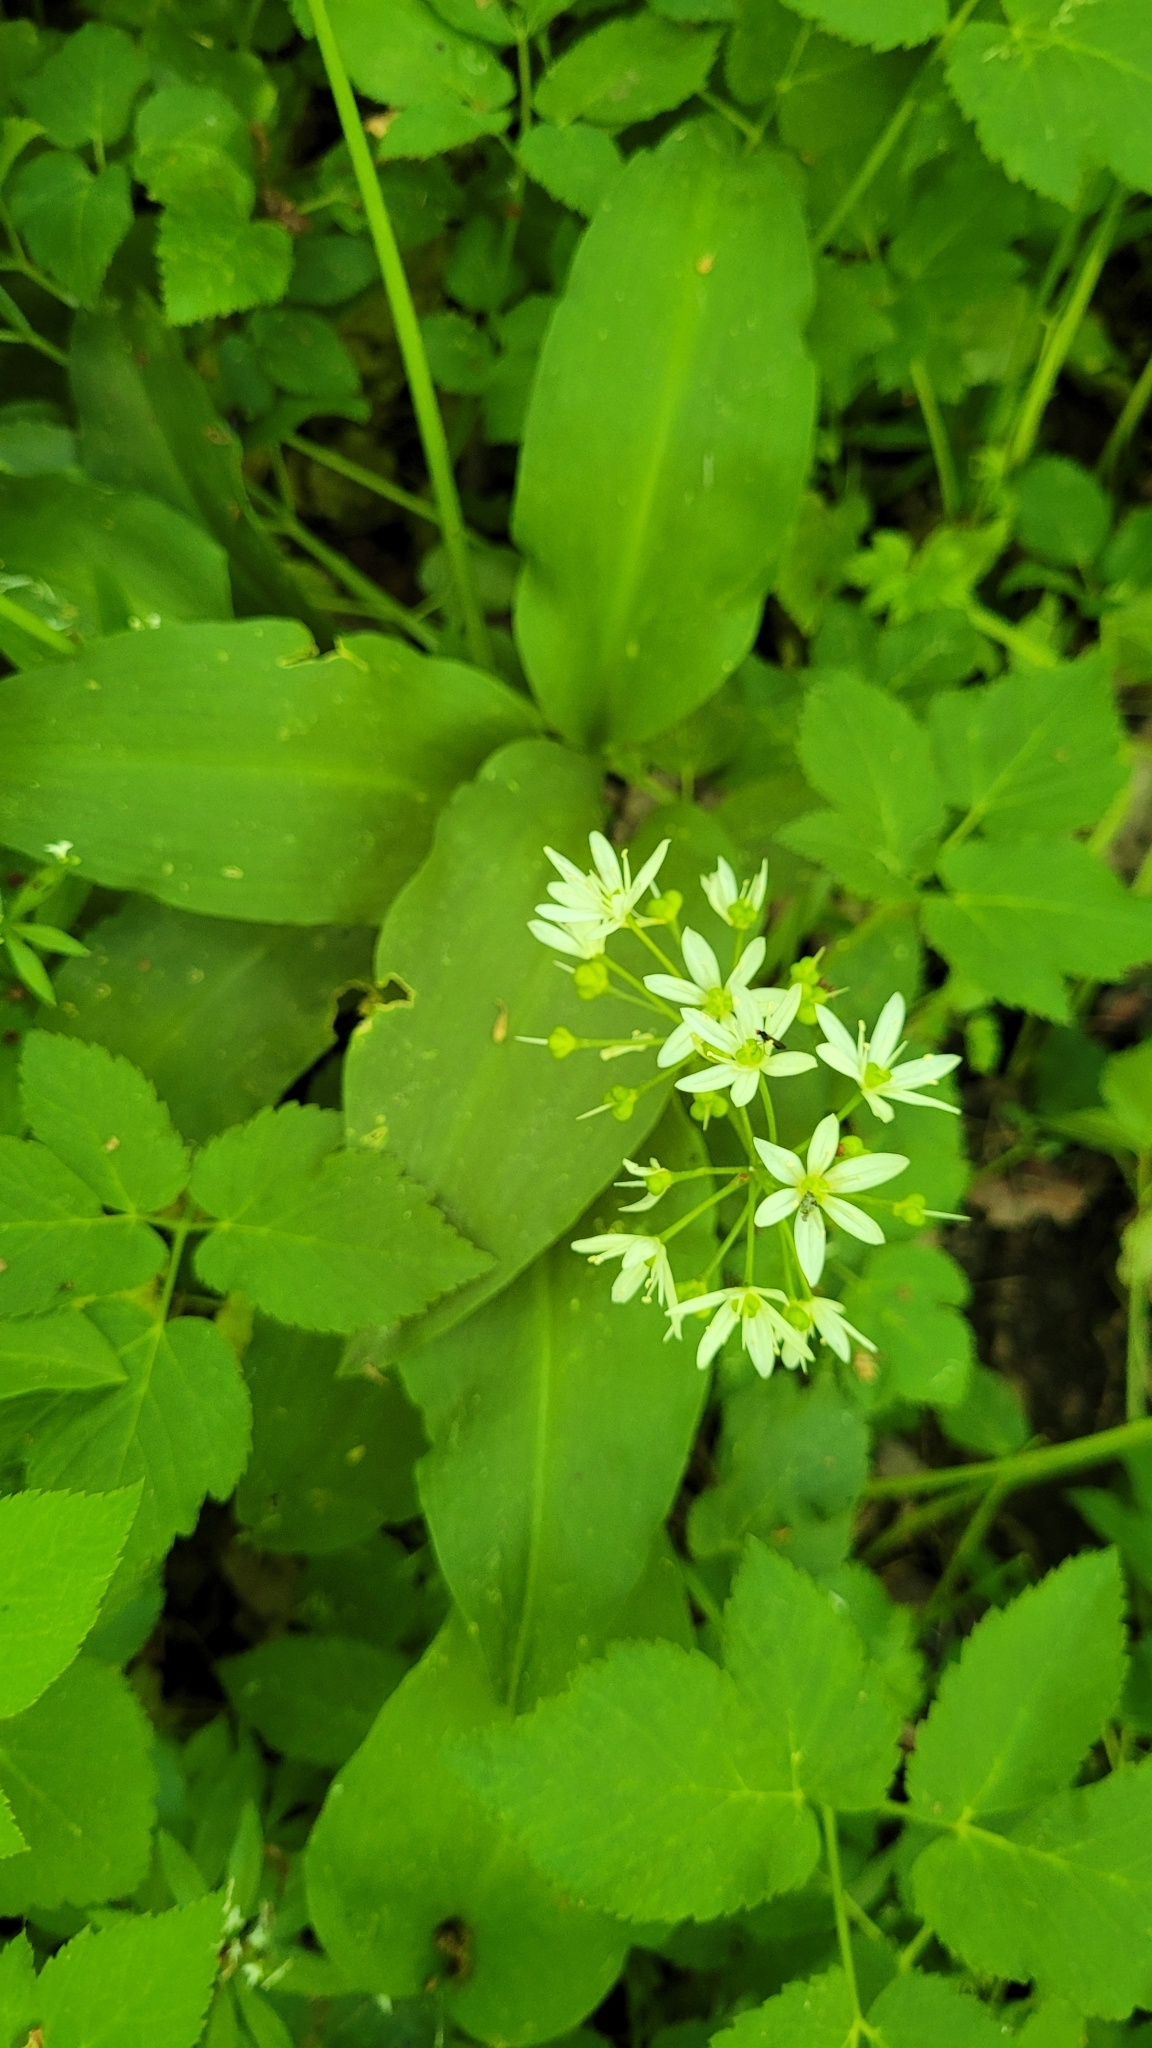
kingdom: Plantae
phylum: Tracheophyta
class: Liliopsida
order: Asparagales
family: Amaryllidaceae
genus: Allium
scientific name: Allium ursinum
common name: Ramsons
